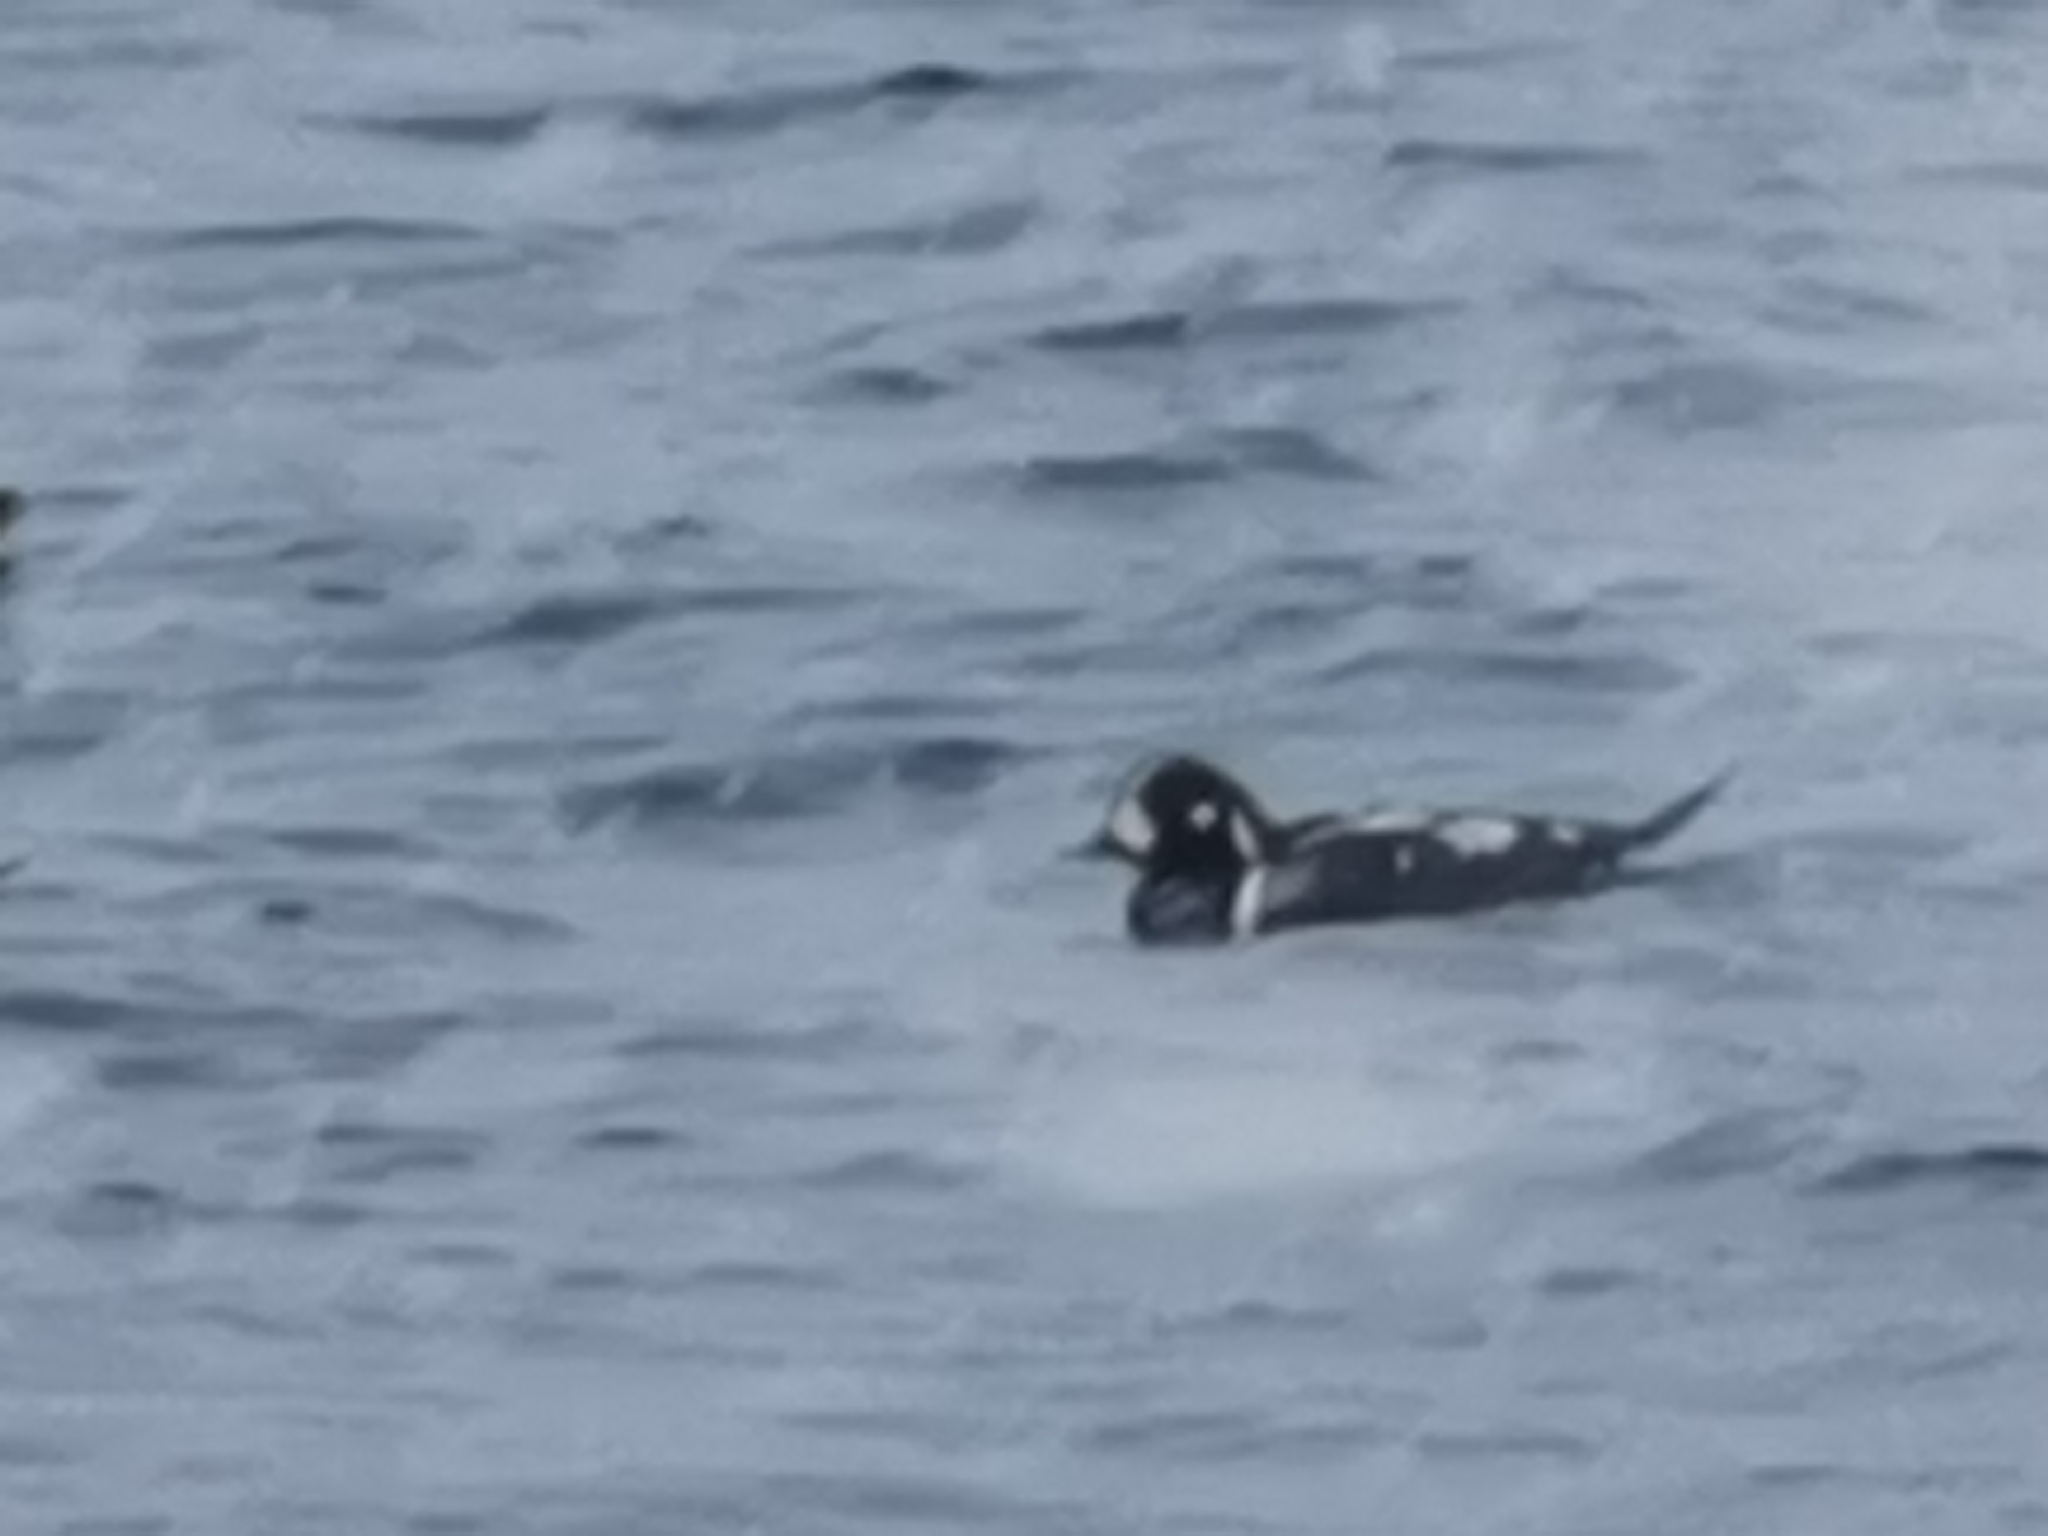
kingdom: Animalia
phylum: Chordata
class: Aves
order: Anseriformes
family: Anatidae
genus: Histrionicus
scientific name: Histrionicus histrionicus
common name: Harlequin duck
